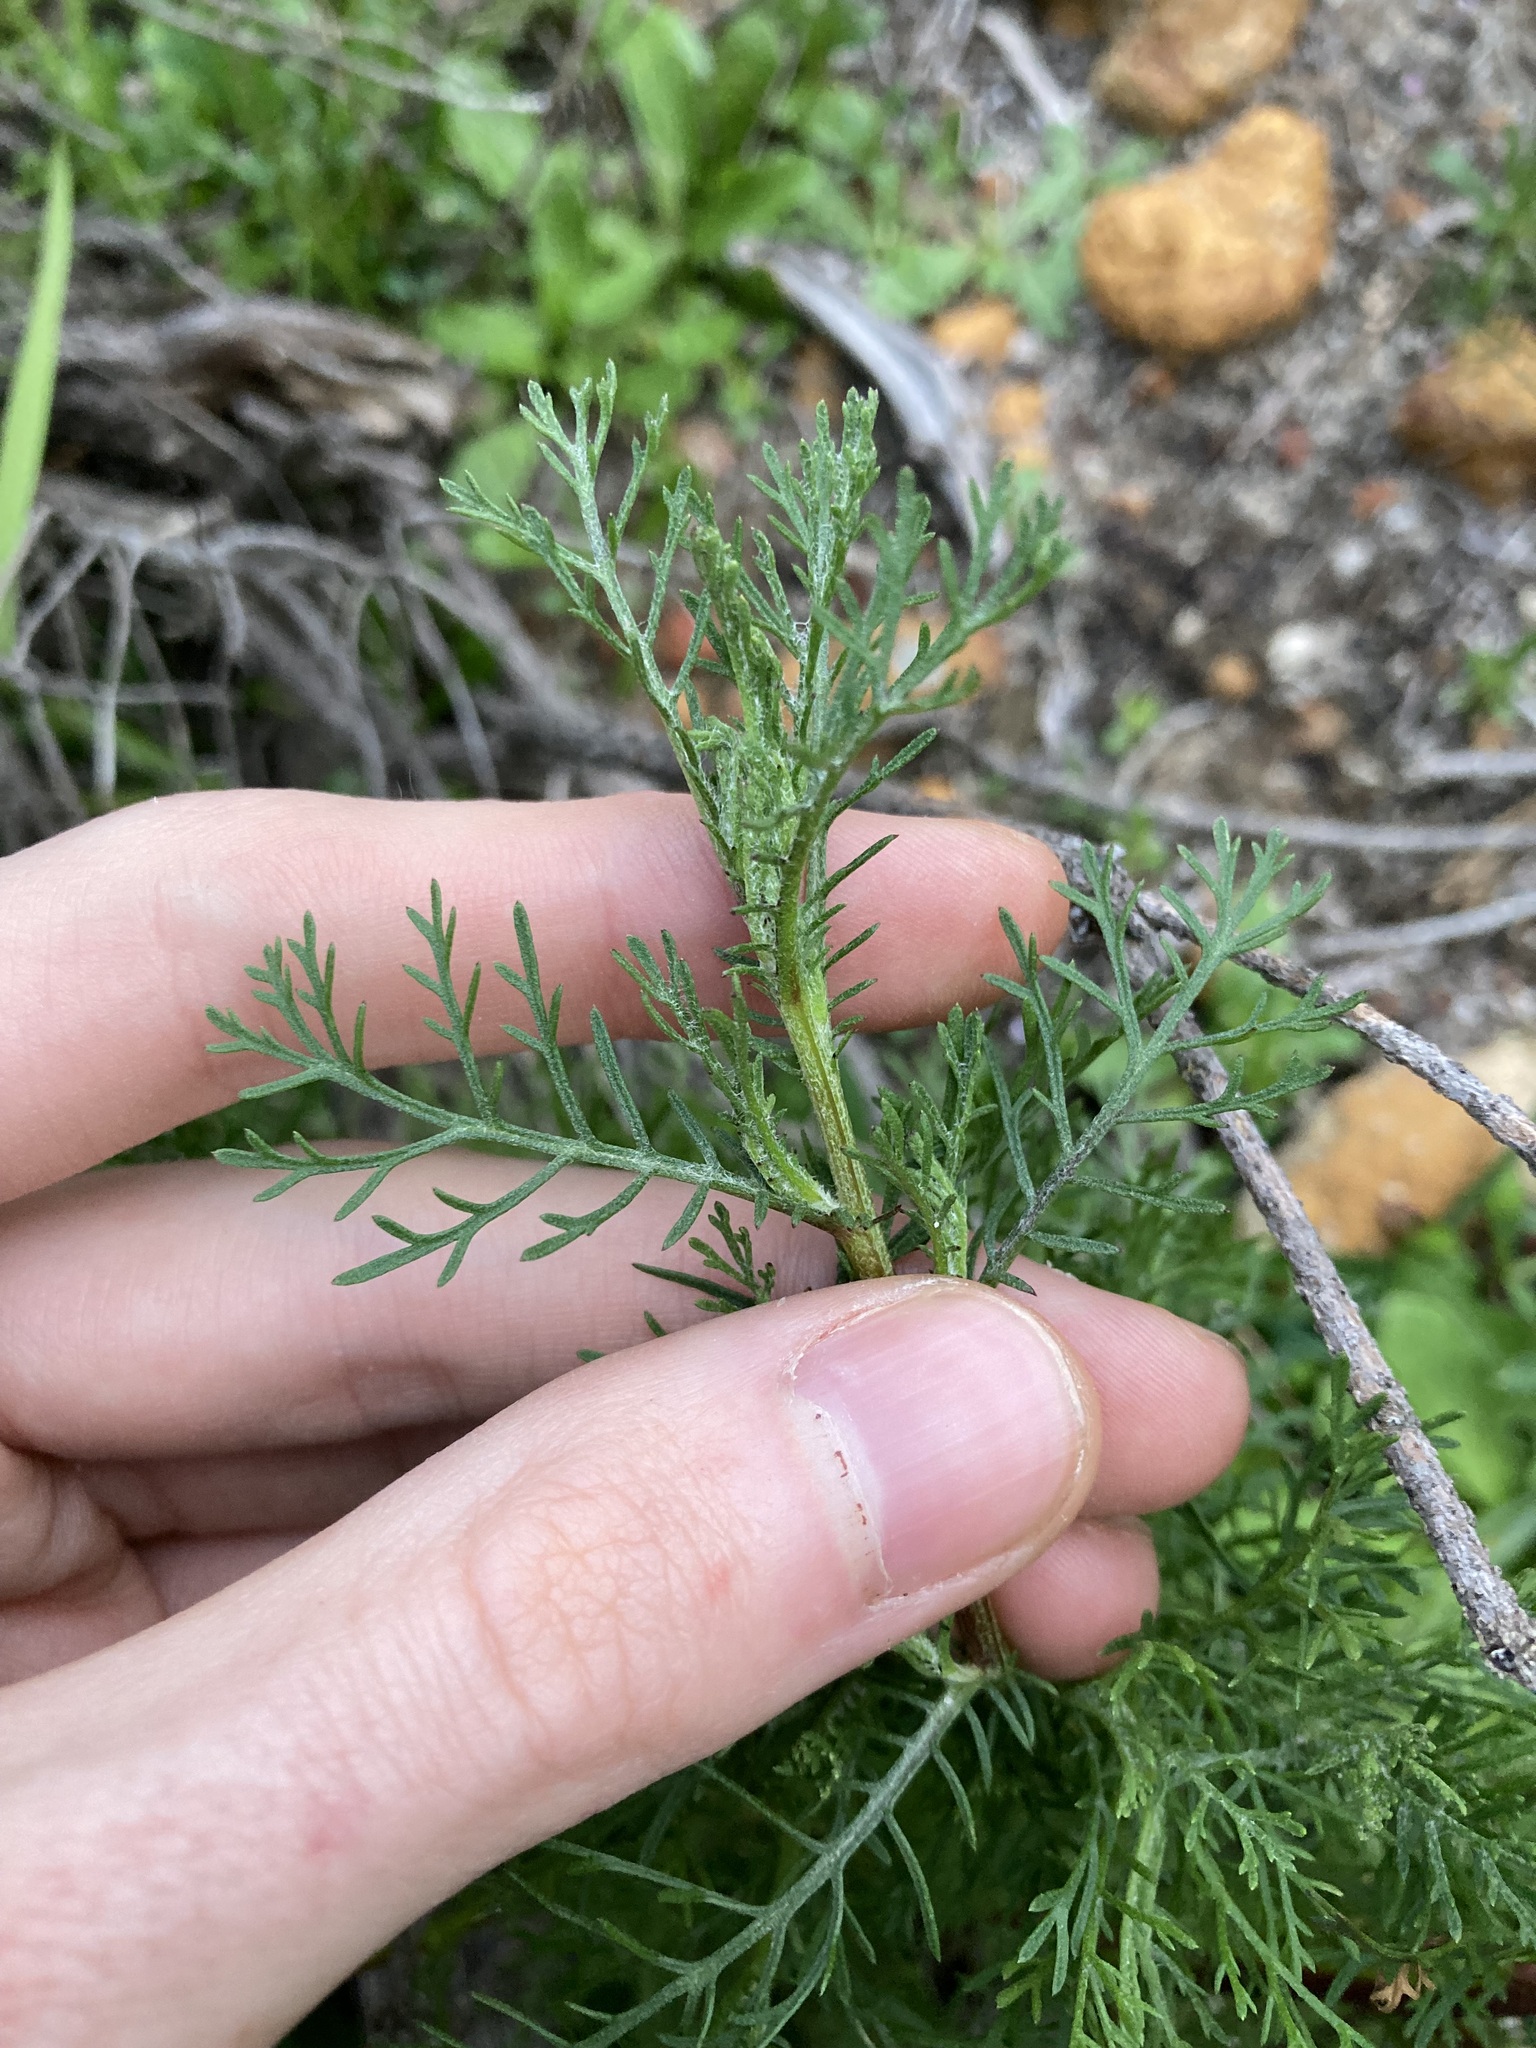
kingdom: Plantae
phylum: Tracheophyta
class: Magnoliopsida
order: Asterales
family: Asteraceae
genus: Ursinia
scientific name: Ursinia anthemoides
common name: Ursinia
